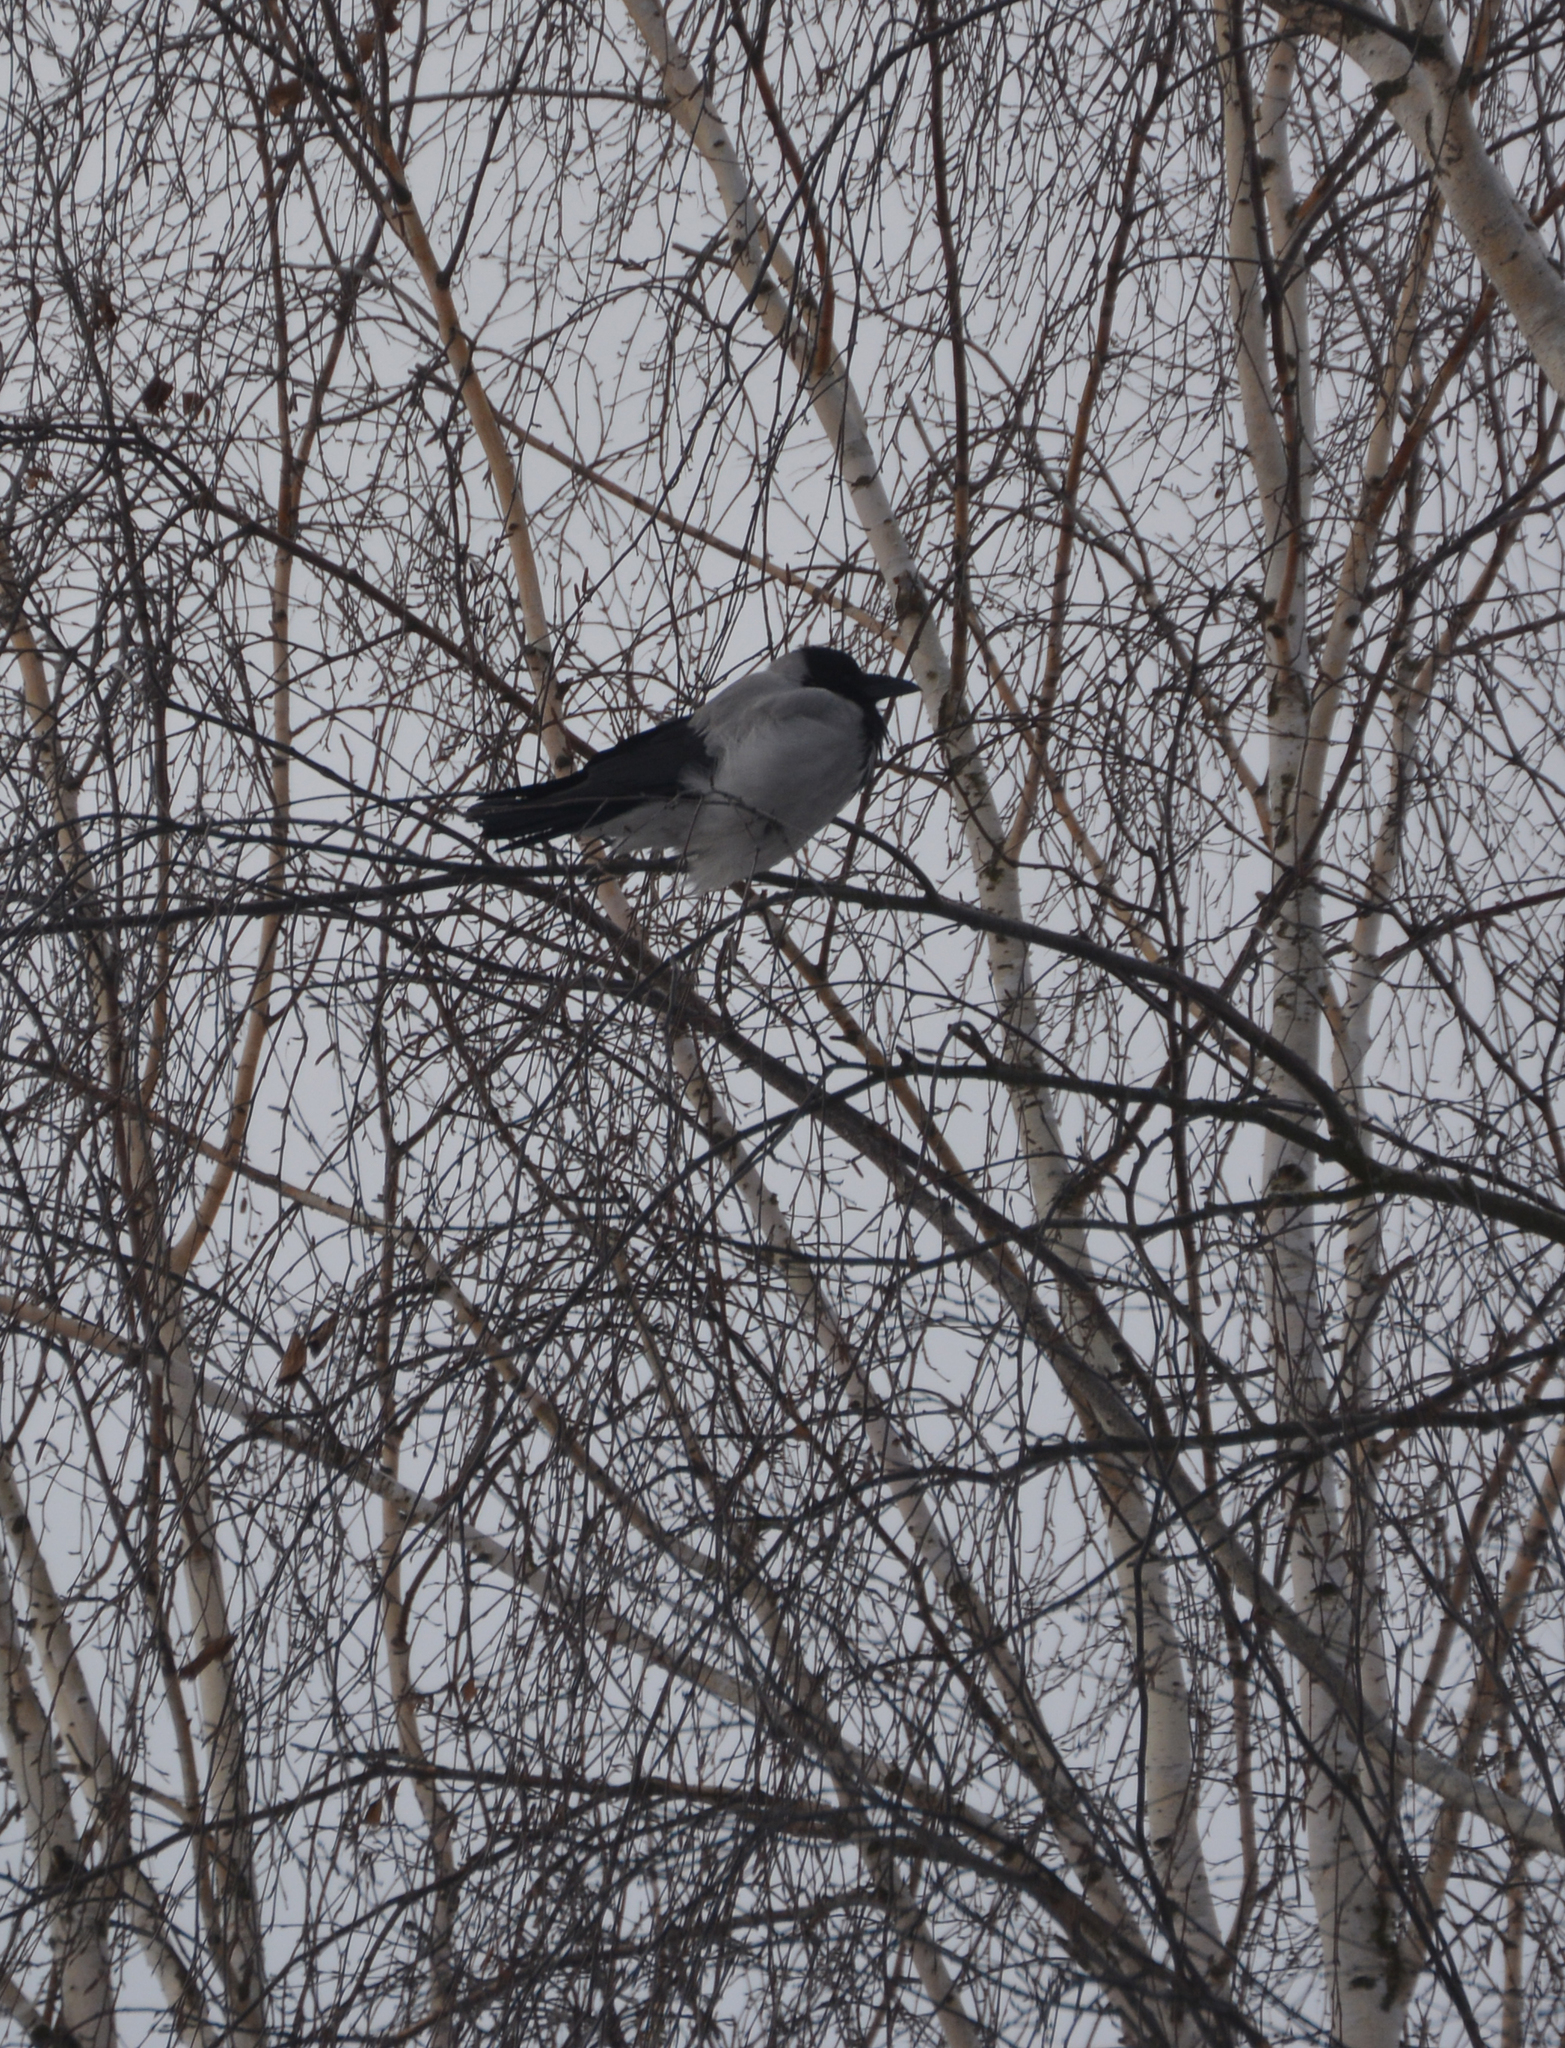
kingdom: Animalia
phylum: Chordata
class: Aves
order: Passeriformes
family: Corvidae
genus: Corvus
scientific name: Corvus cornix
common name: Hooded crow
